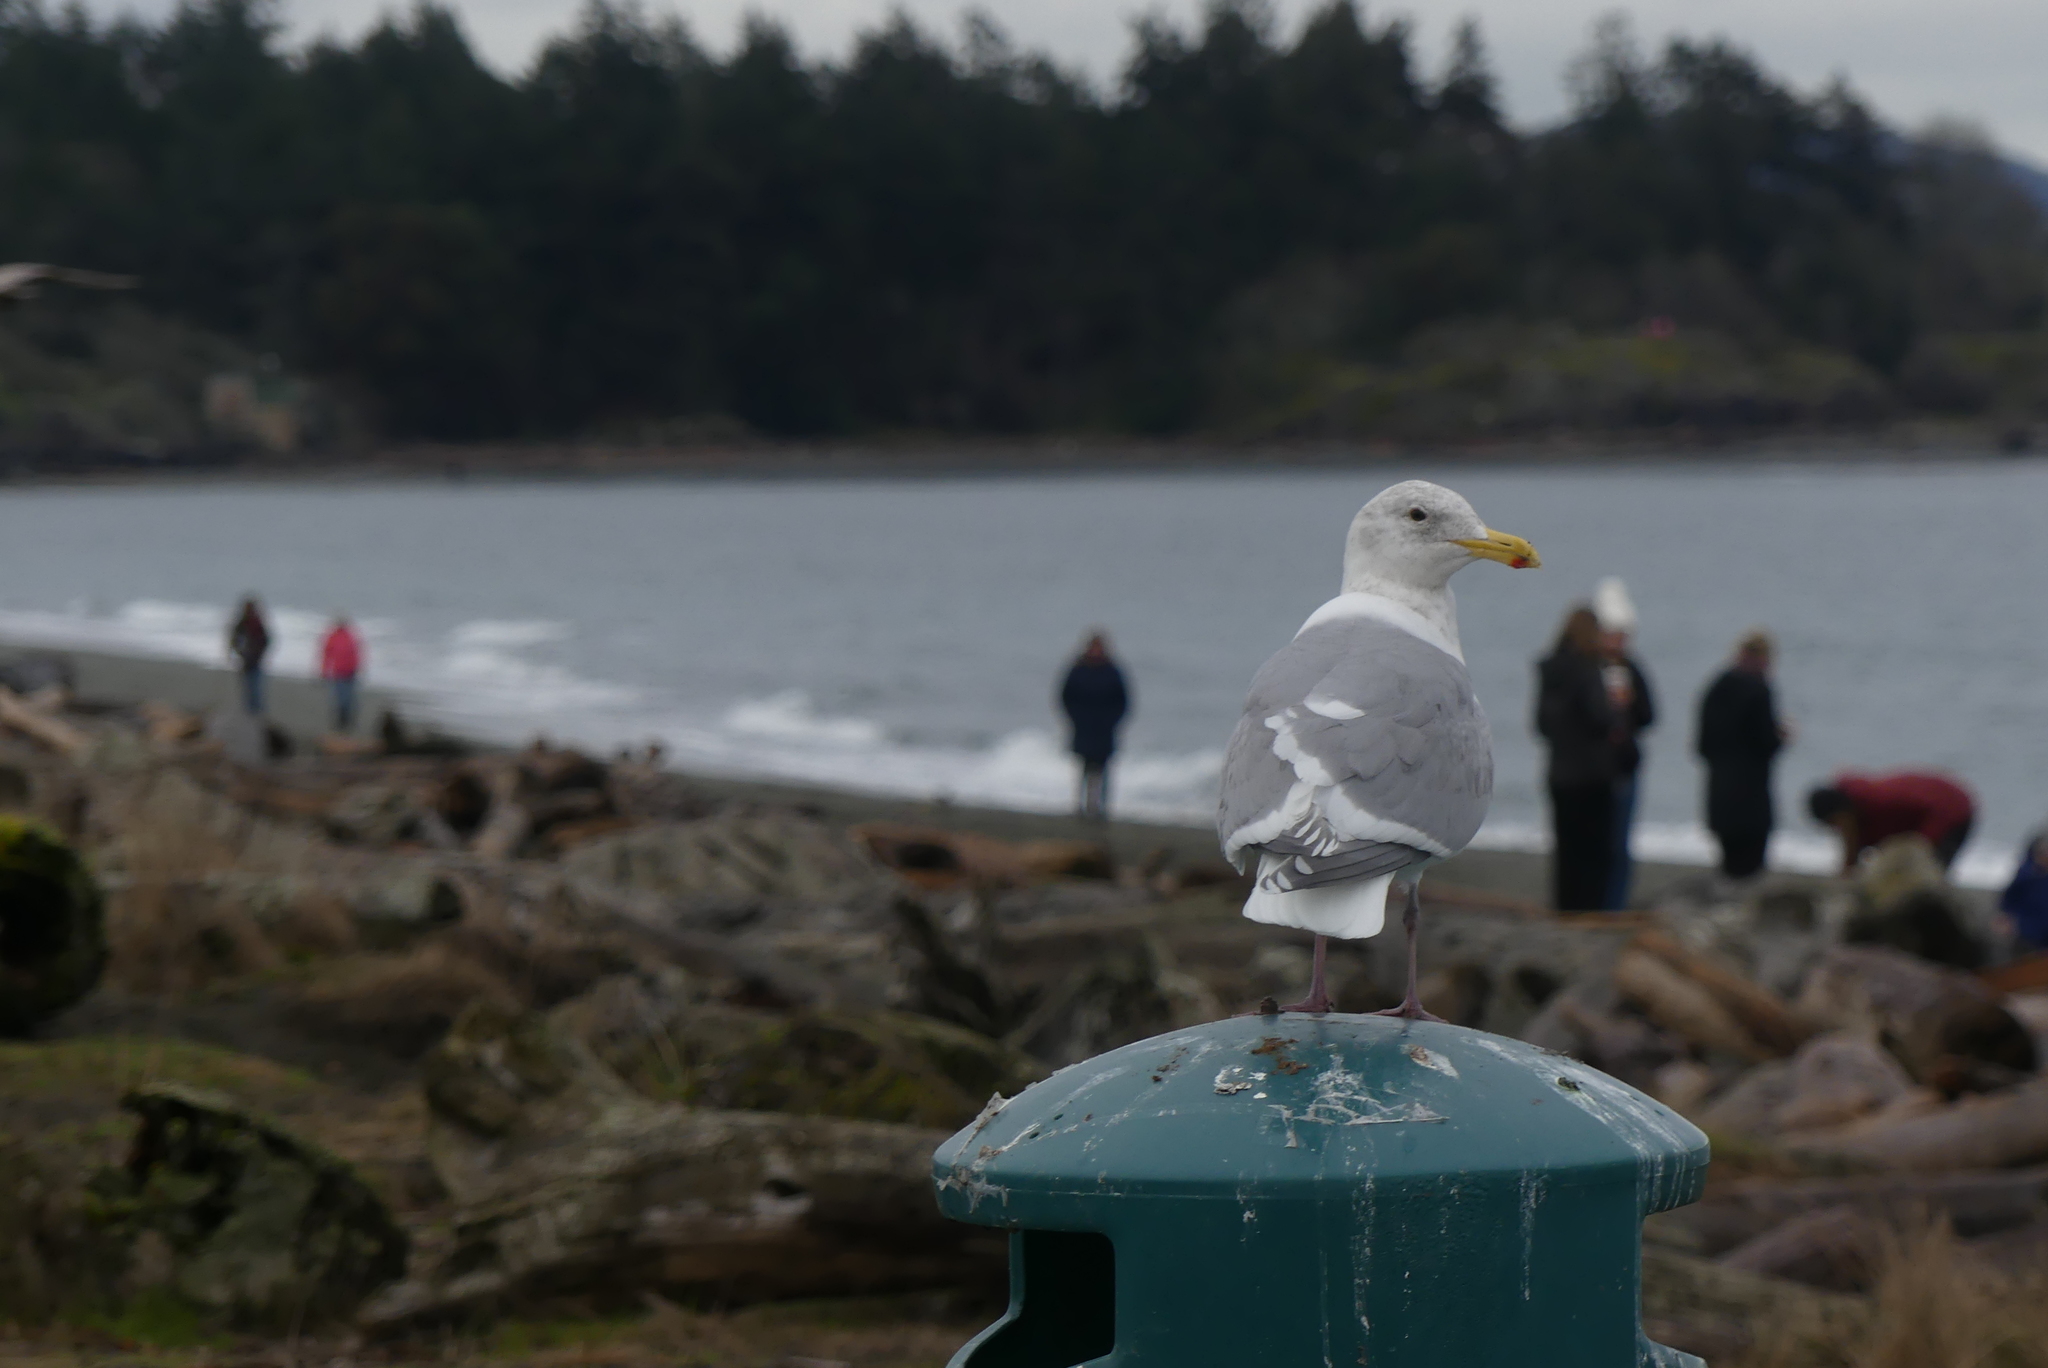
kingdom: Animalia
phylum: Chordata
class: Aves
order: Charadriiformes
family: Laridae
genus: Larus
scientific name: Larus
